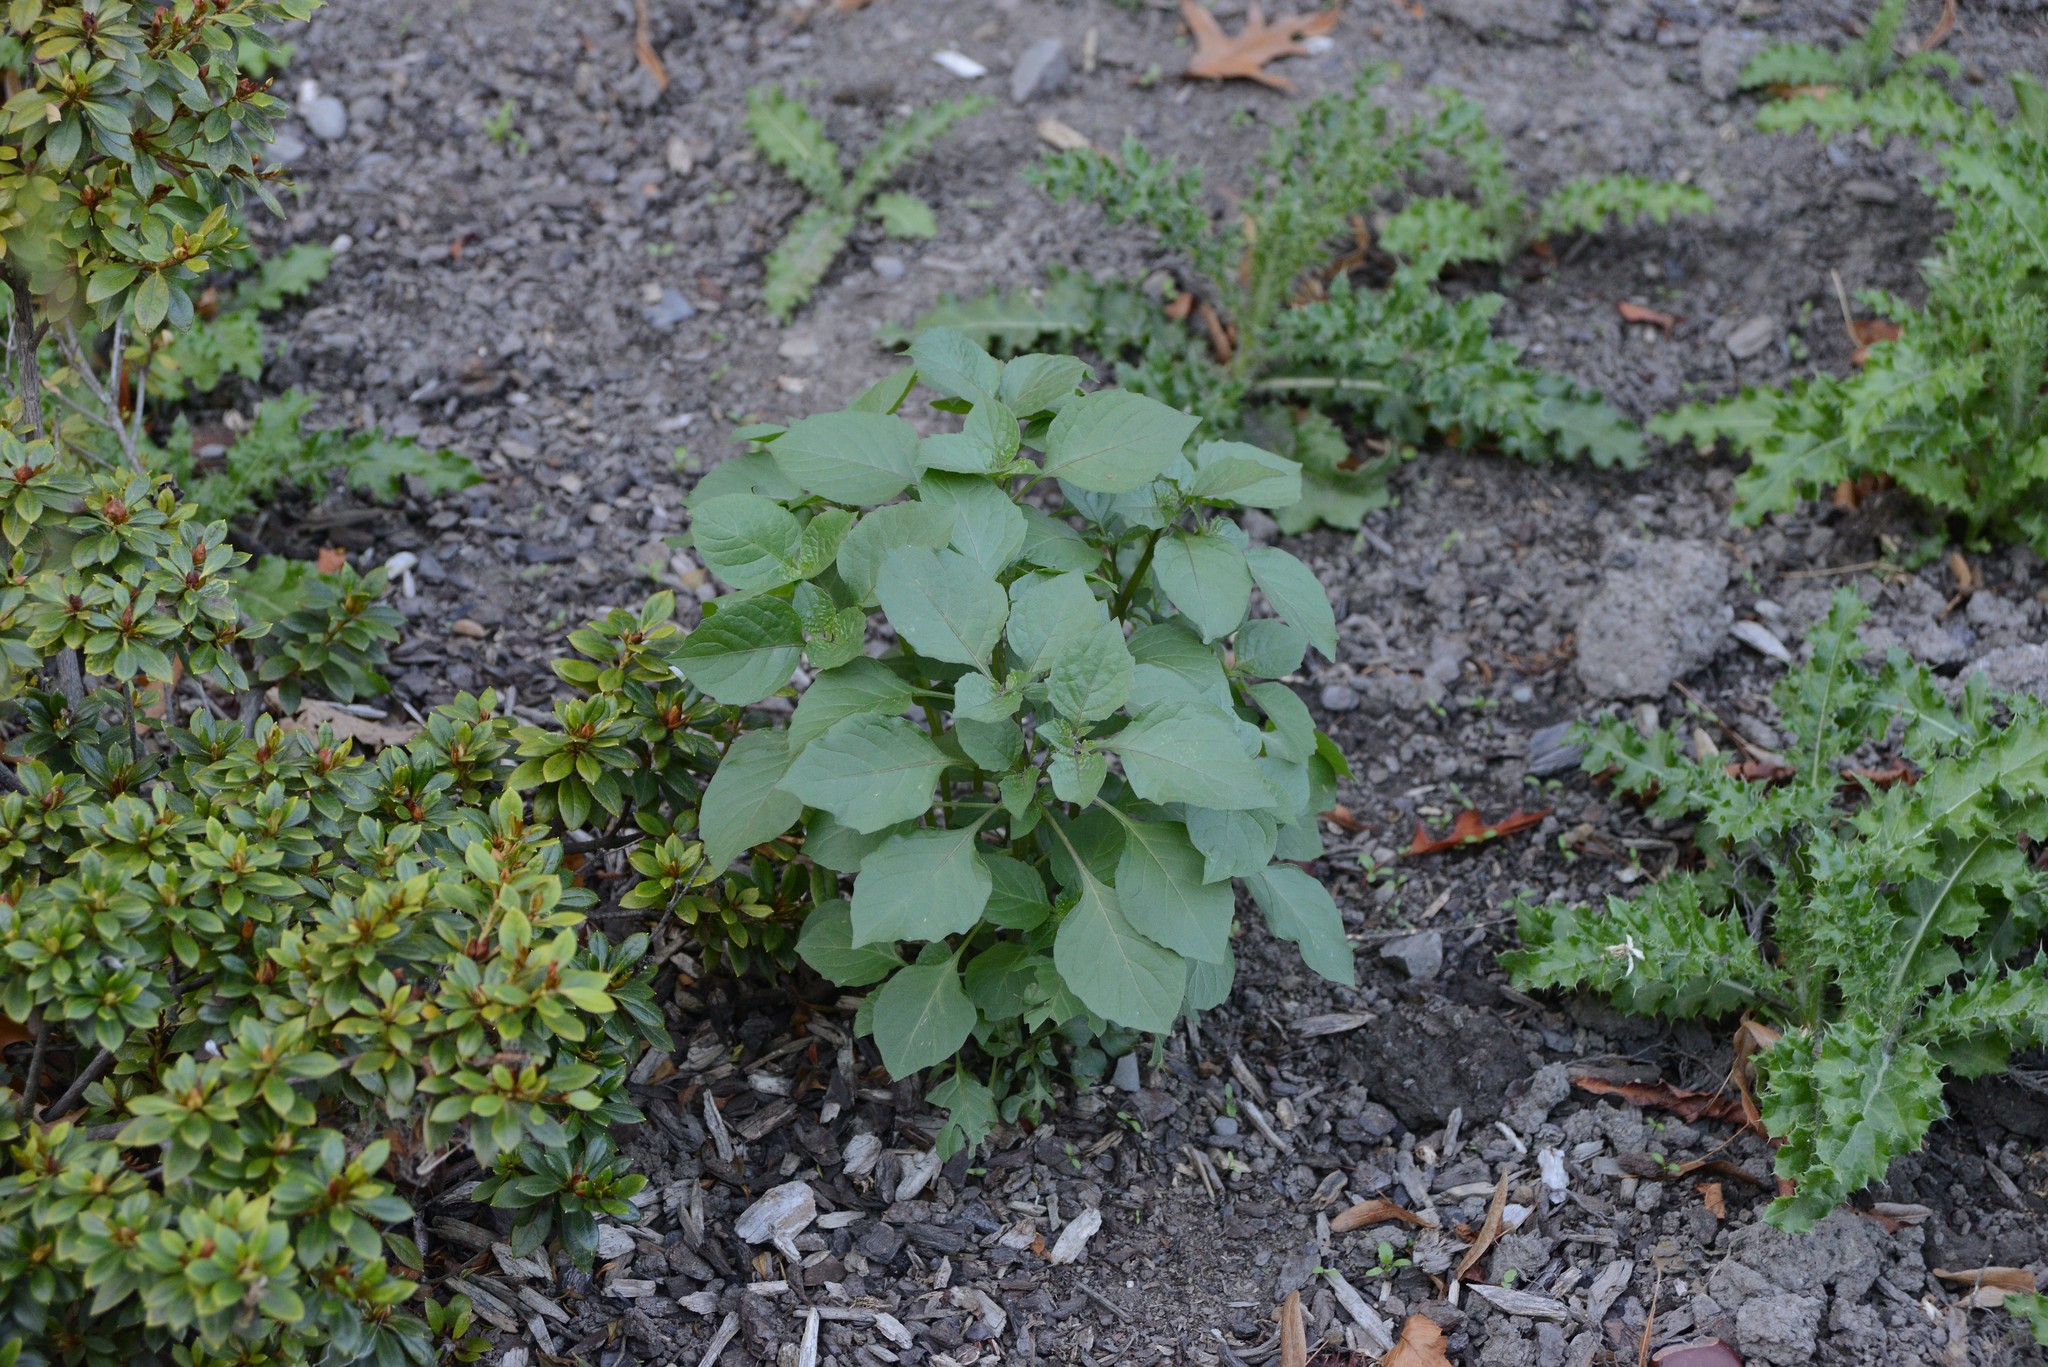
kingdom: Plantae
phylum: Tracheophyta
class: Magnoliopsida
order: Solanales
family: Solanaceae
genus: Solanum
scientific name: Solanum nigrum
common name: Black nightshade
